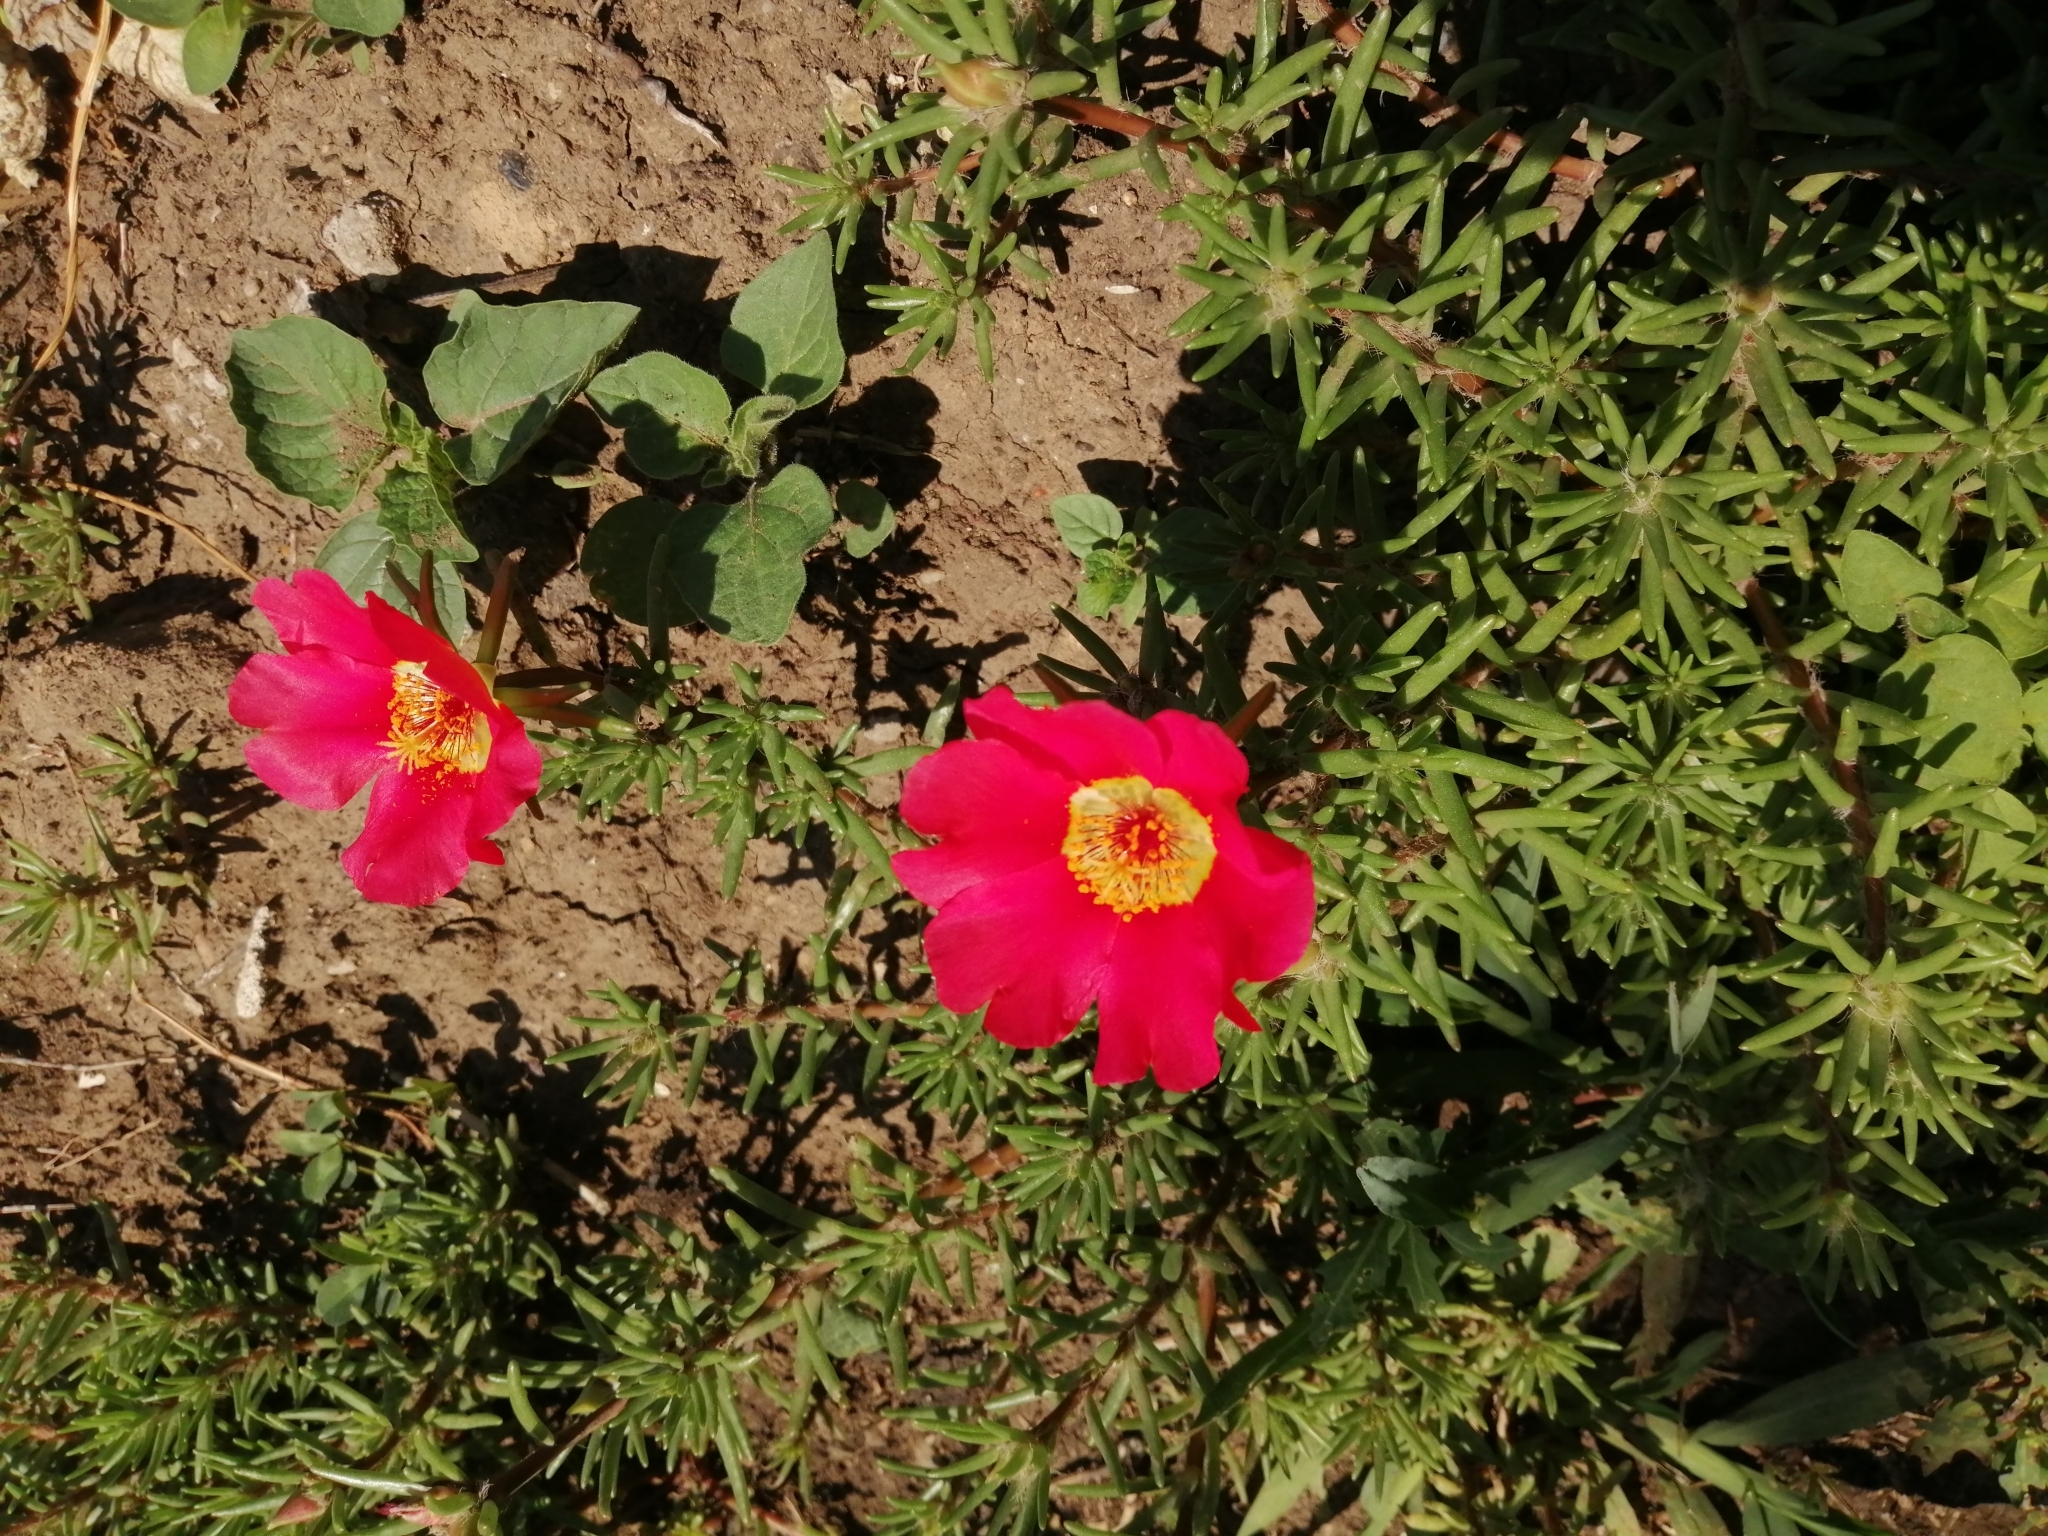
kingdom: Plantae
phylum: Tracheophyta
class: Magnoliopsida
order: Caryophyllales
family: Portulacaceae
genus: Portulaca
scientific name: Portulaca grandiflora
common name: Moss-rose
